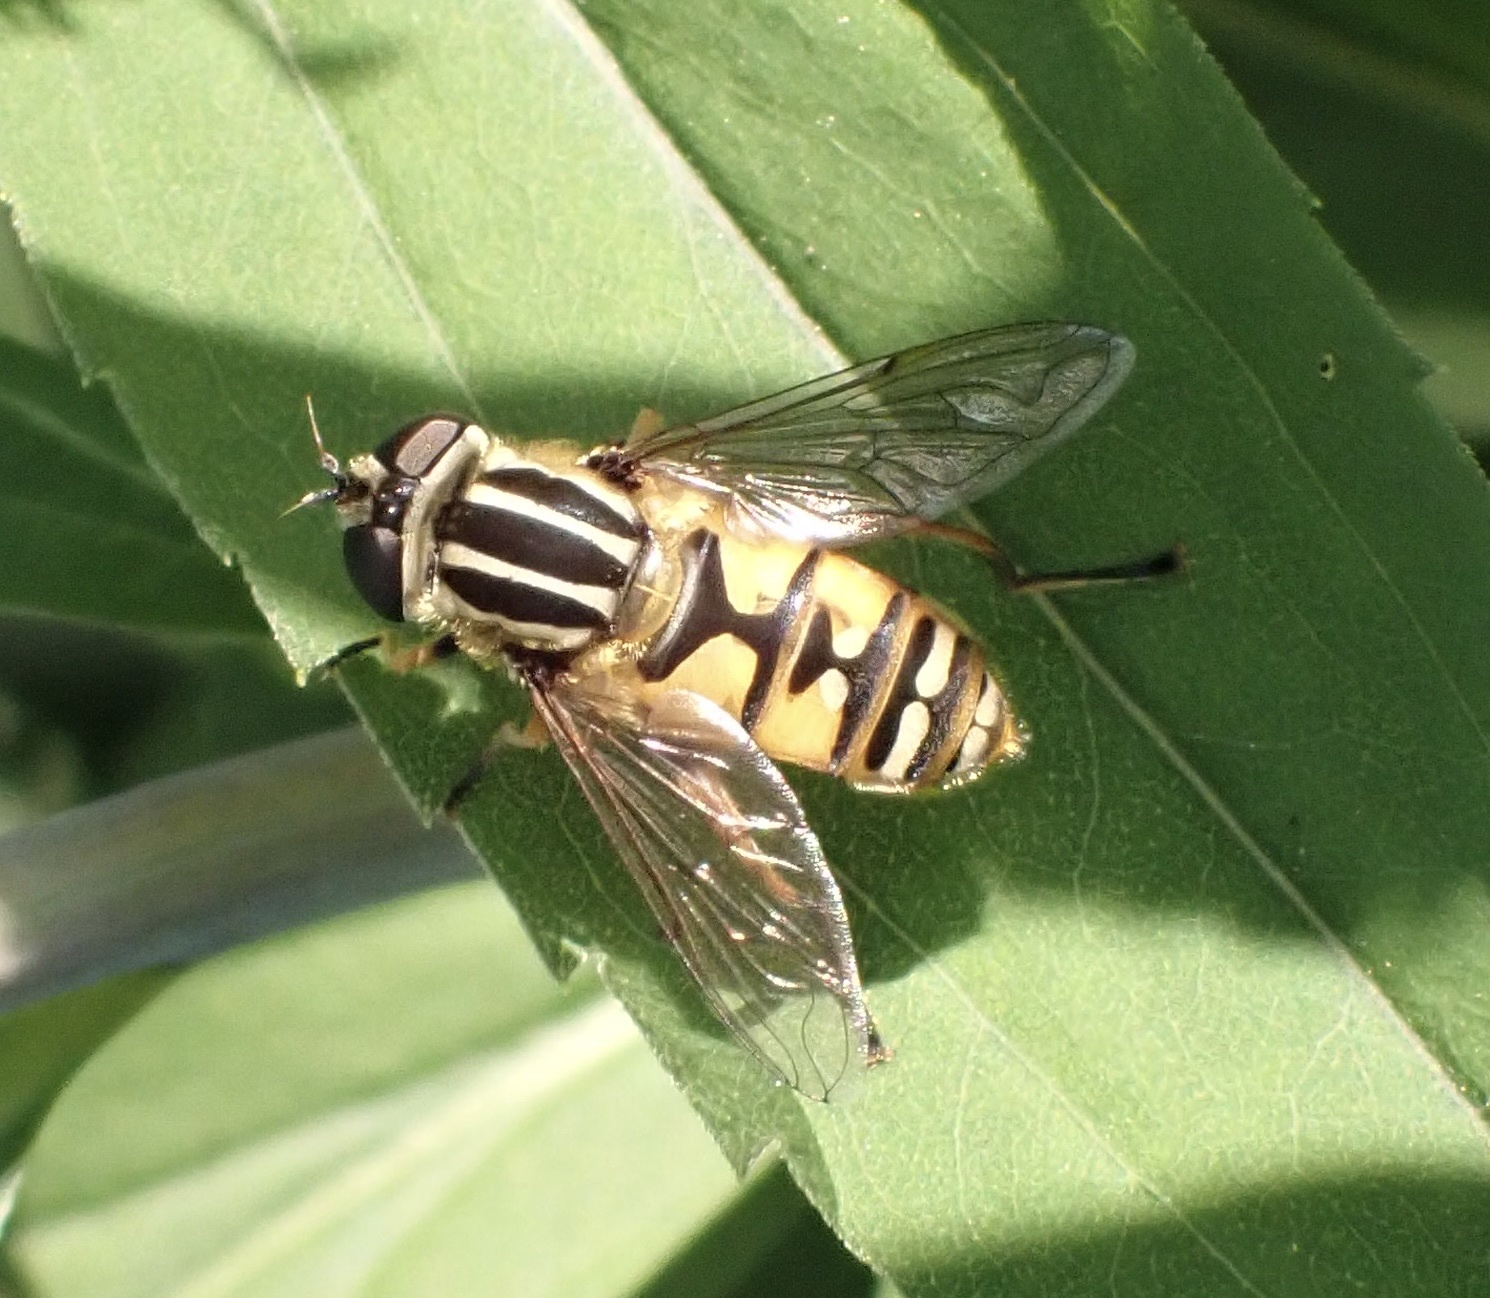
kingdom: Animalia
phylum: Arthropoda
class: Insecta
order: Diptera
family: Syrphidae
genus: Helophilus
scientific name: Helophilus pendulus
